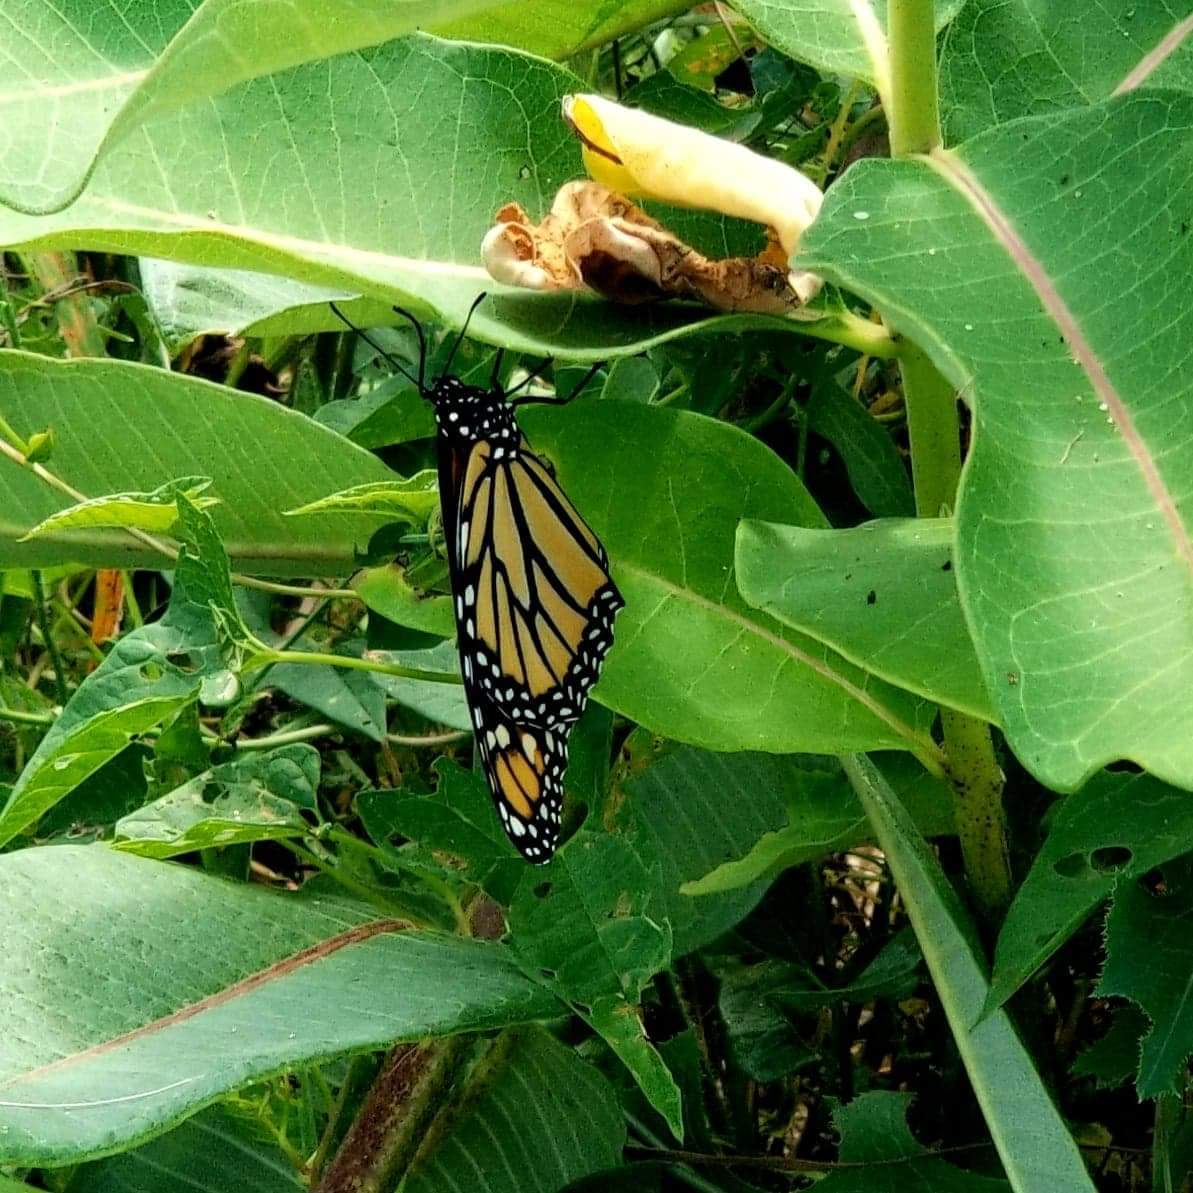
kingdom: Animalia
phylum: Arthropoda
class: Insecta
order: Lepidoptera
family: Nymphalidae
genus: Danaus
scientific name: Danaus plexippus
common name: Monarch
